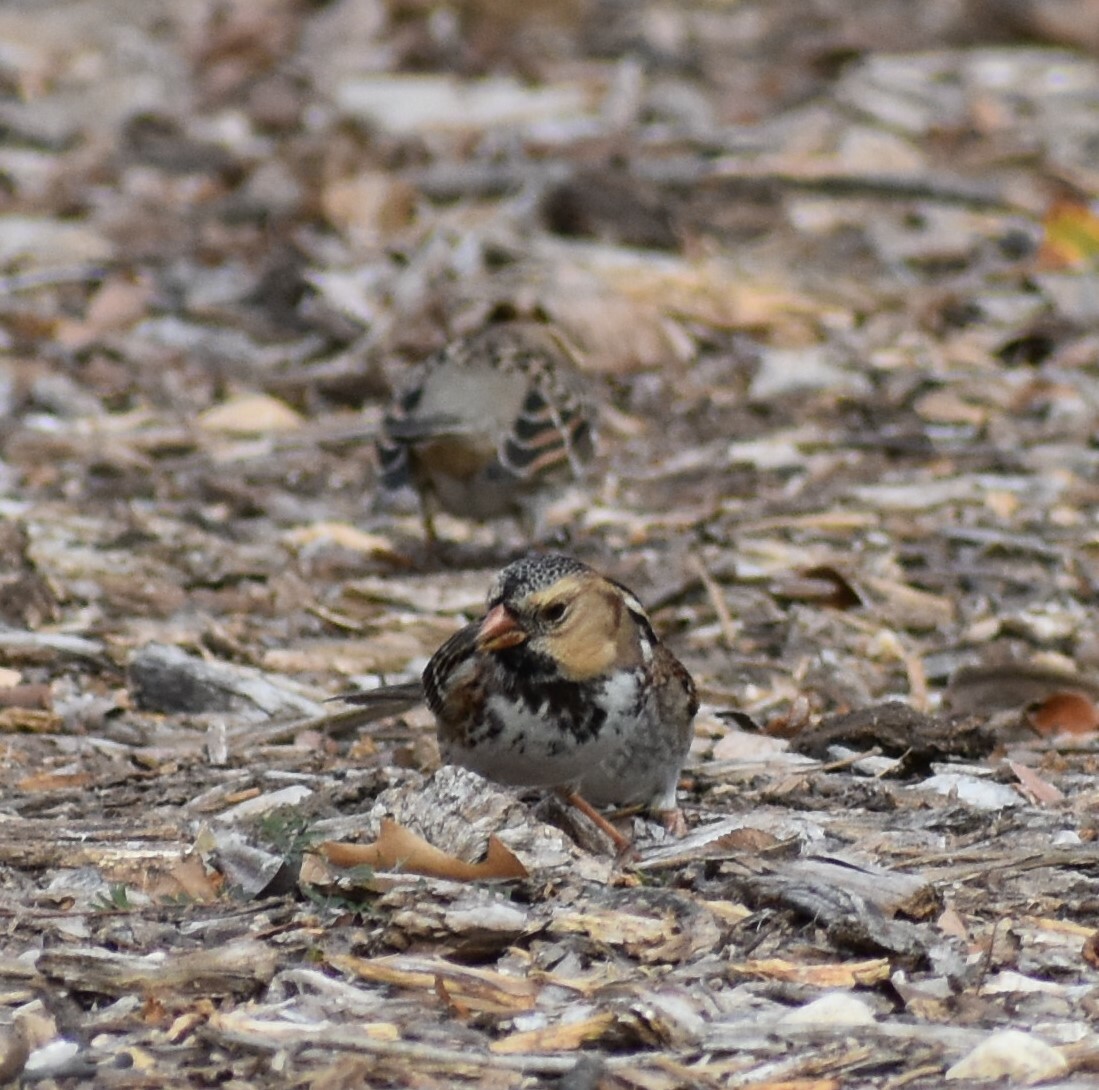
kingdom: Animalia
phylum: Chordata
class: Aves
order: Passeriformes
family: Passerellidae
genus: Zonotrichia
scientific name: Zonotrichia querula
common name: Harris's sparrow
